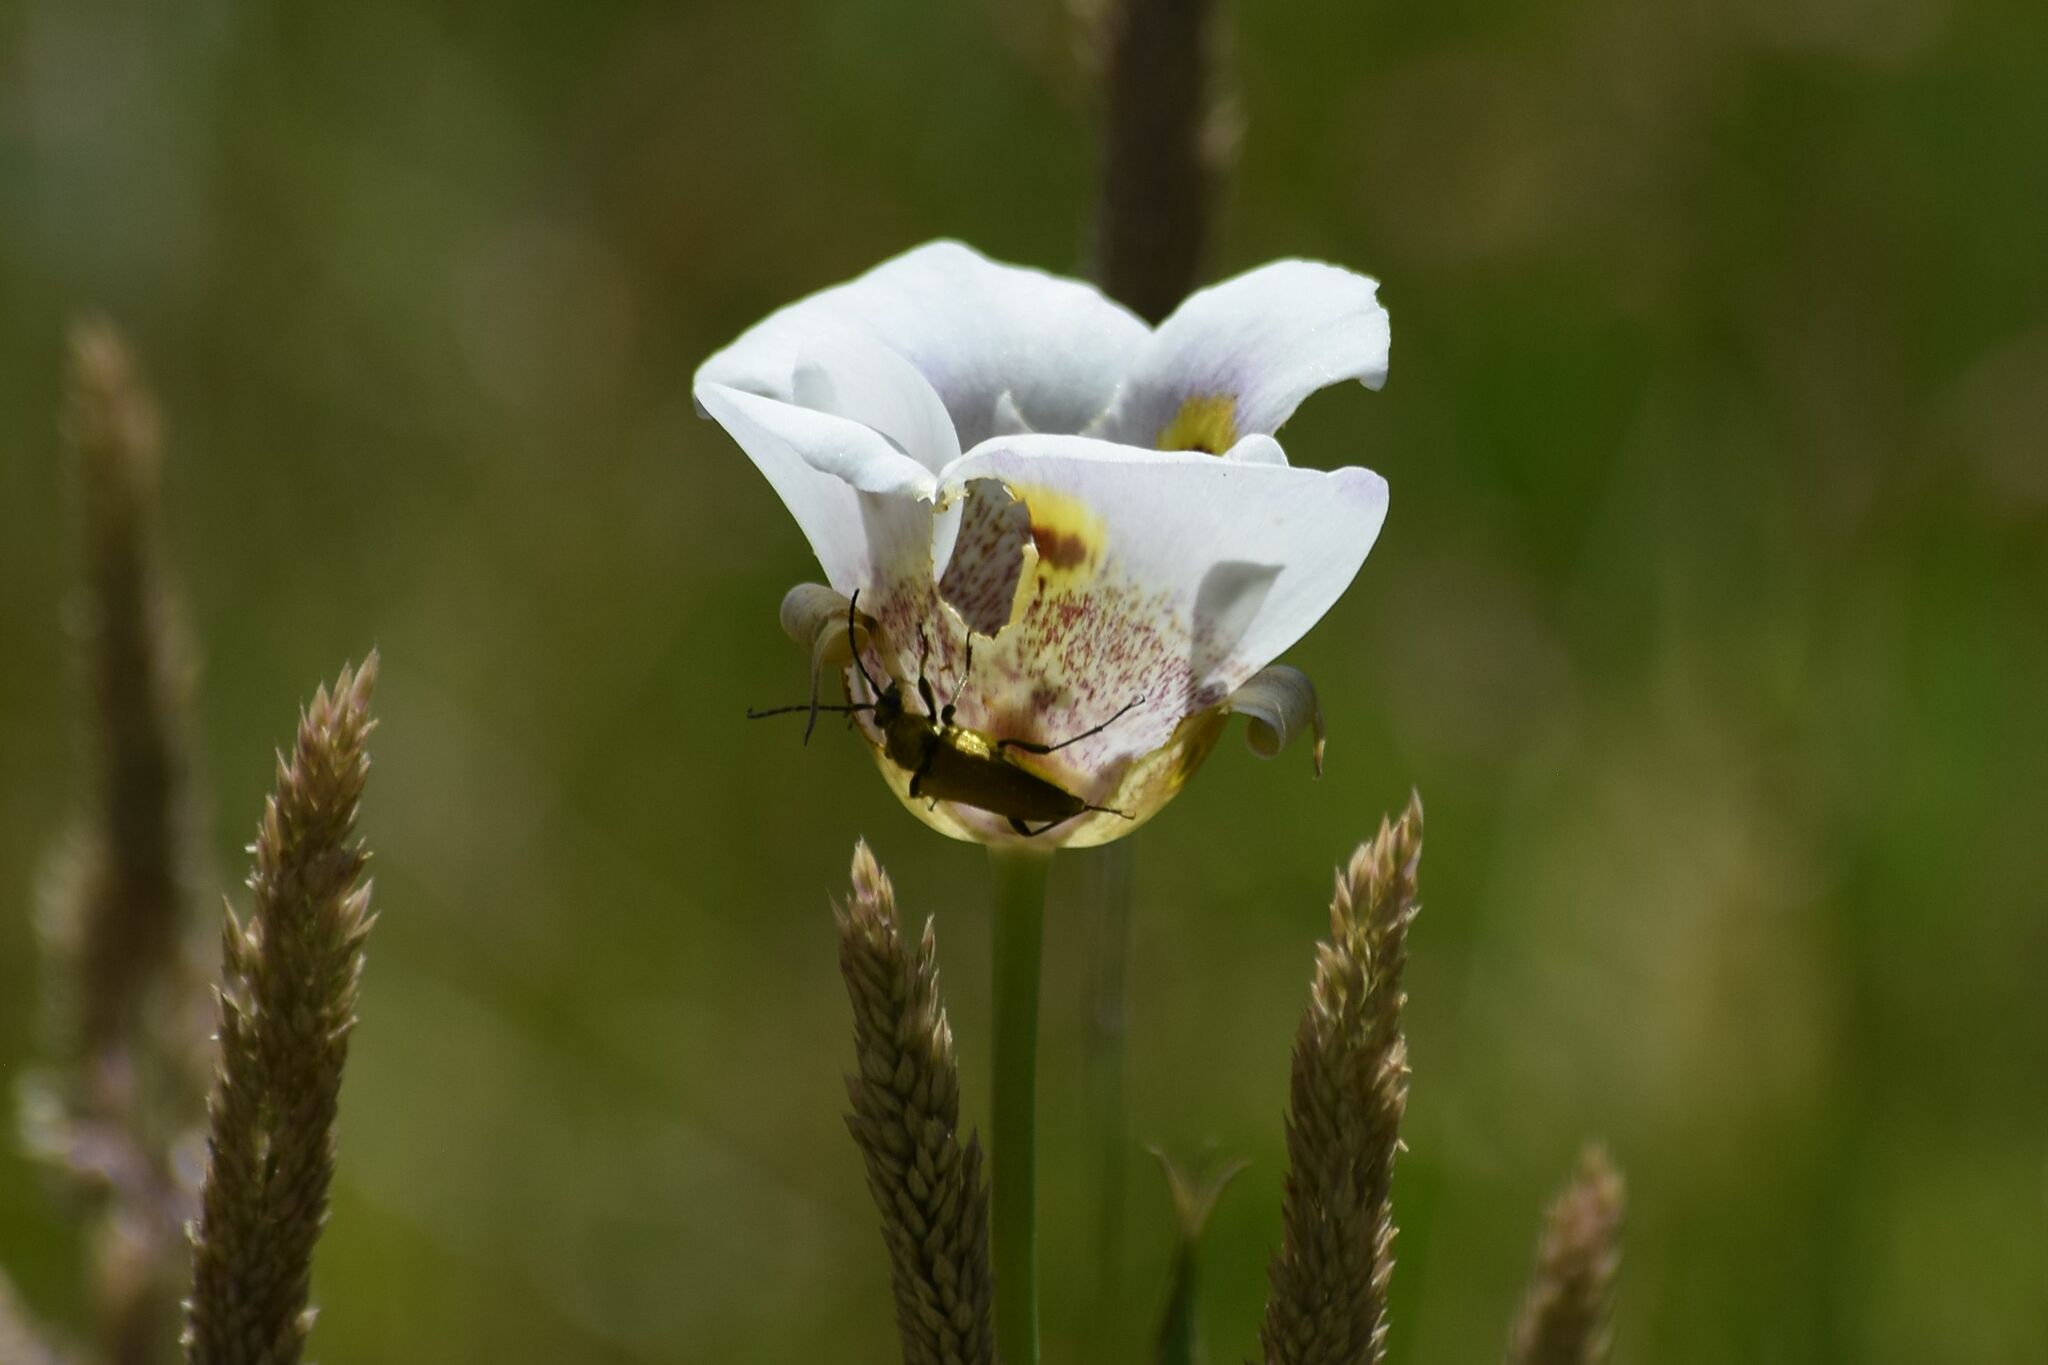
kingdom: Animalia
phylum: Arthropoda
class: Insecta
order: Coleoptera
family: Cerambycidae
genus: Cosmosalia
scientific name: Cosmosalia chrysocoma
